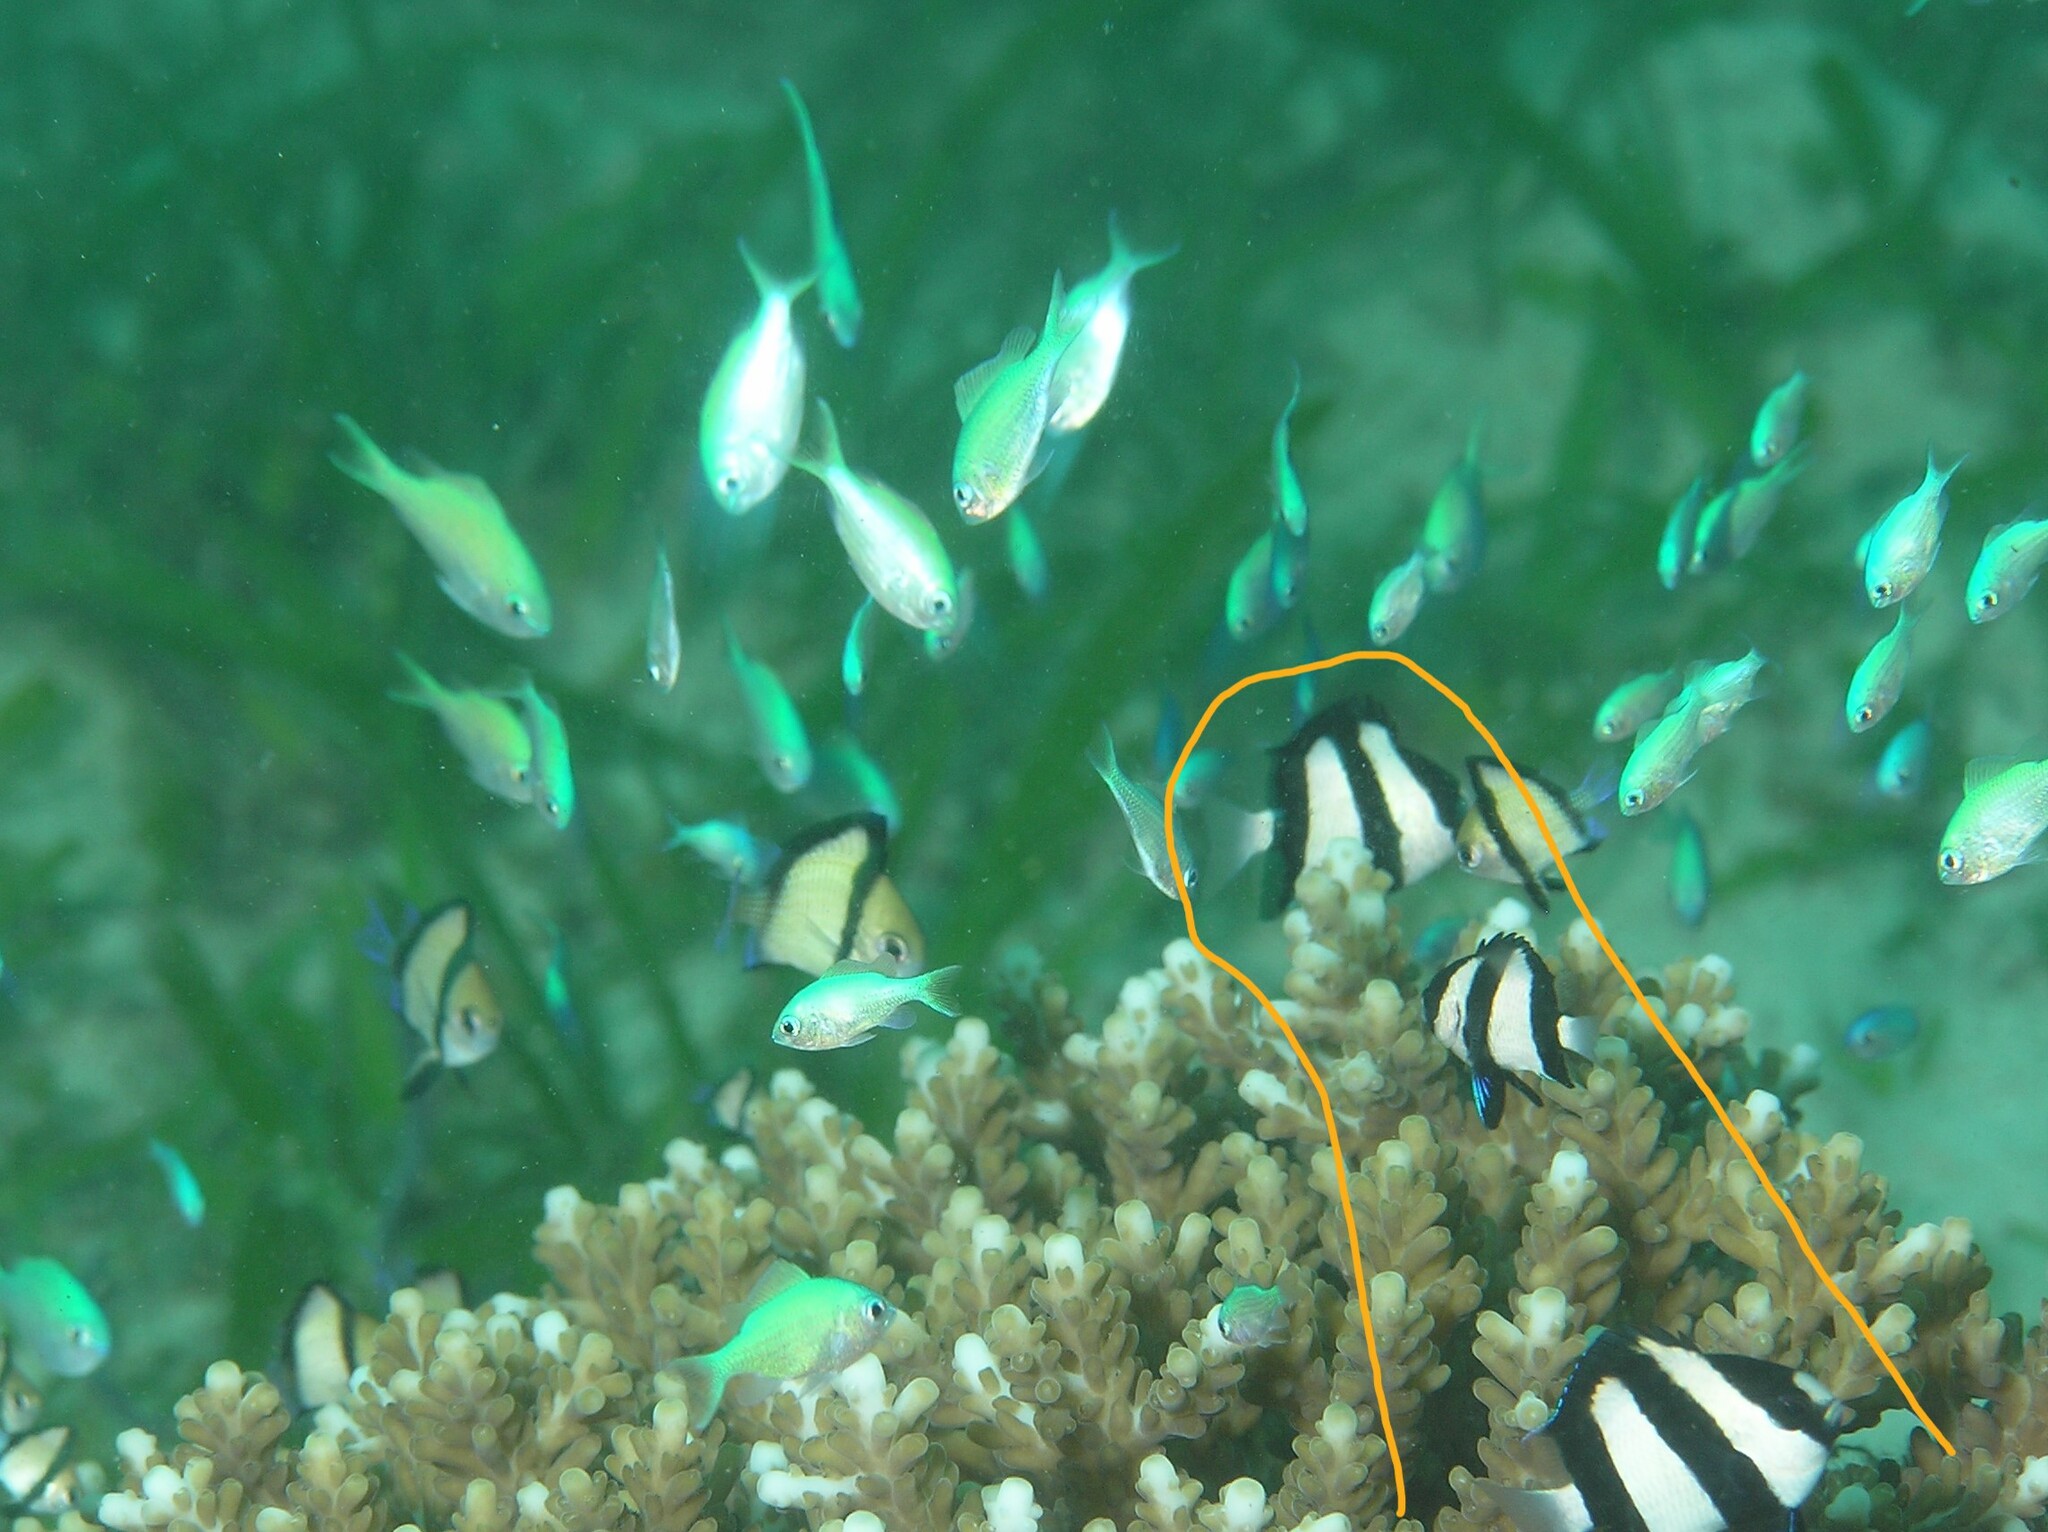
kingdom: Animalia
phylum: Chordata
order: Perciformes
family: Pomacentridae
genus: Dascyllus
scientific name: Dascyllus aruanus
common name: Humbug dascyllus
